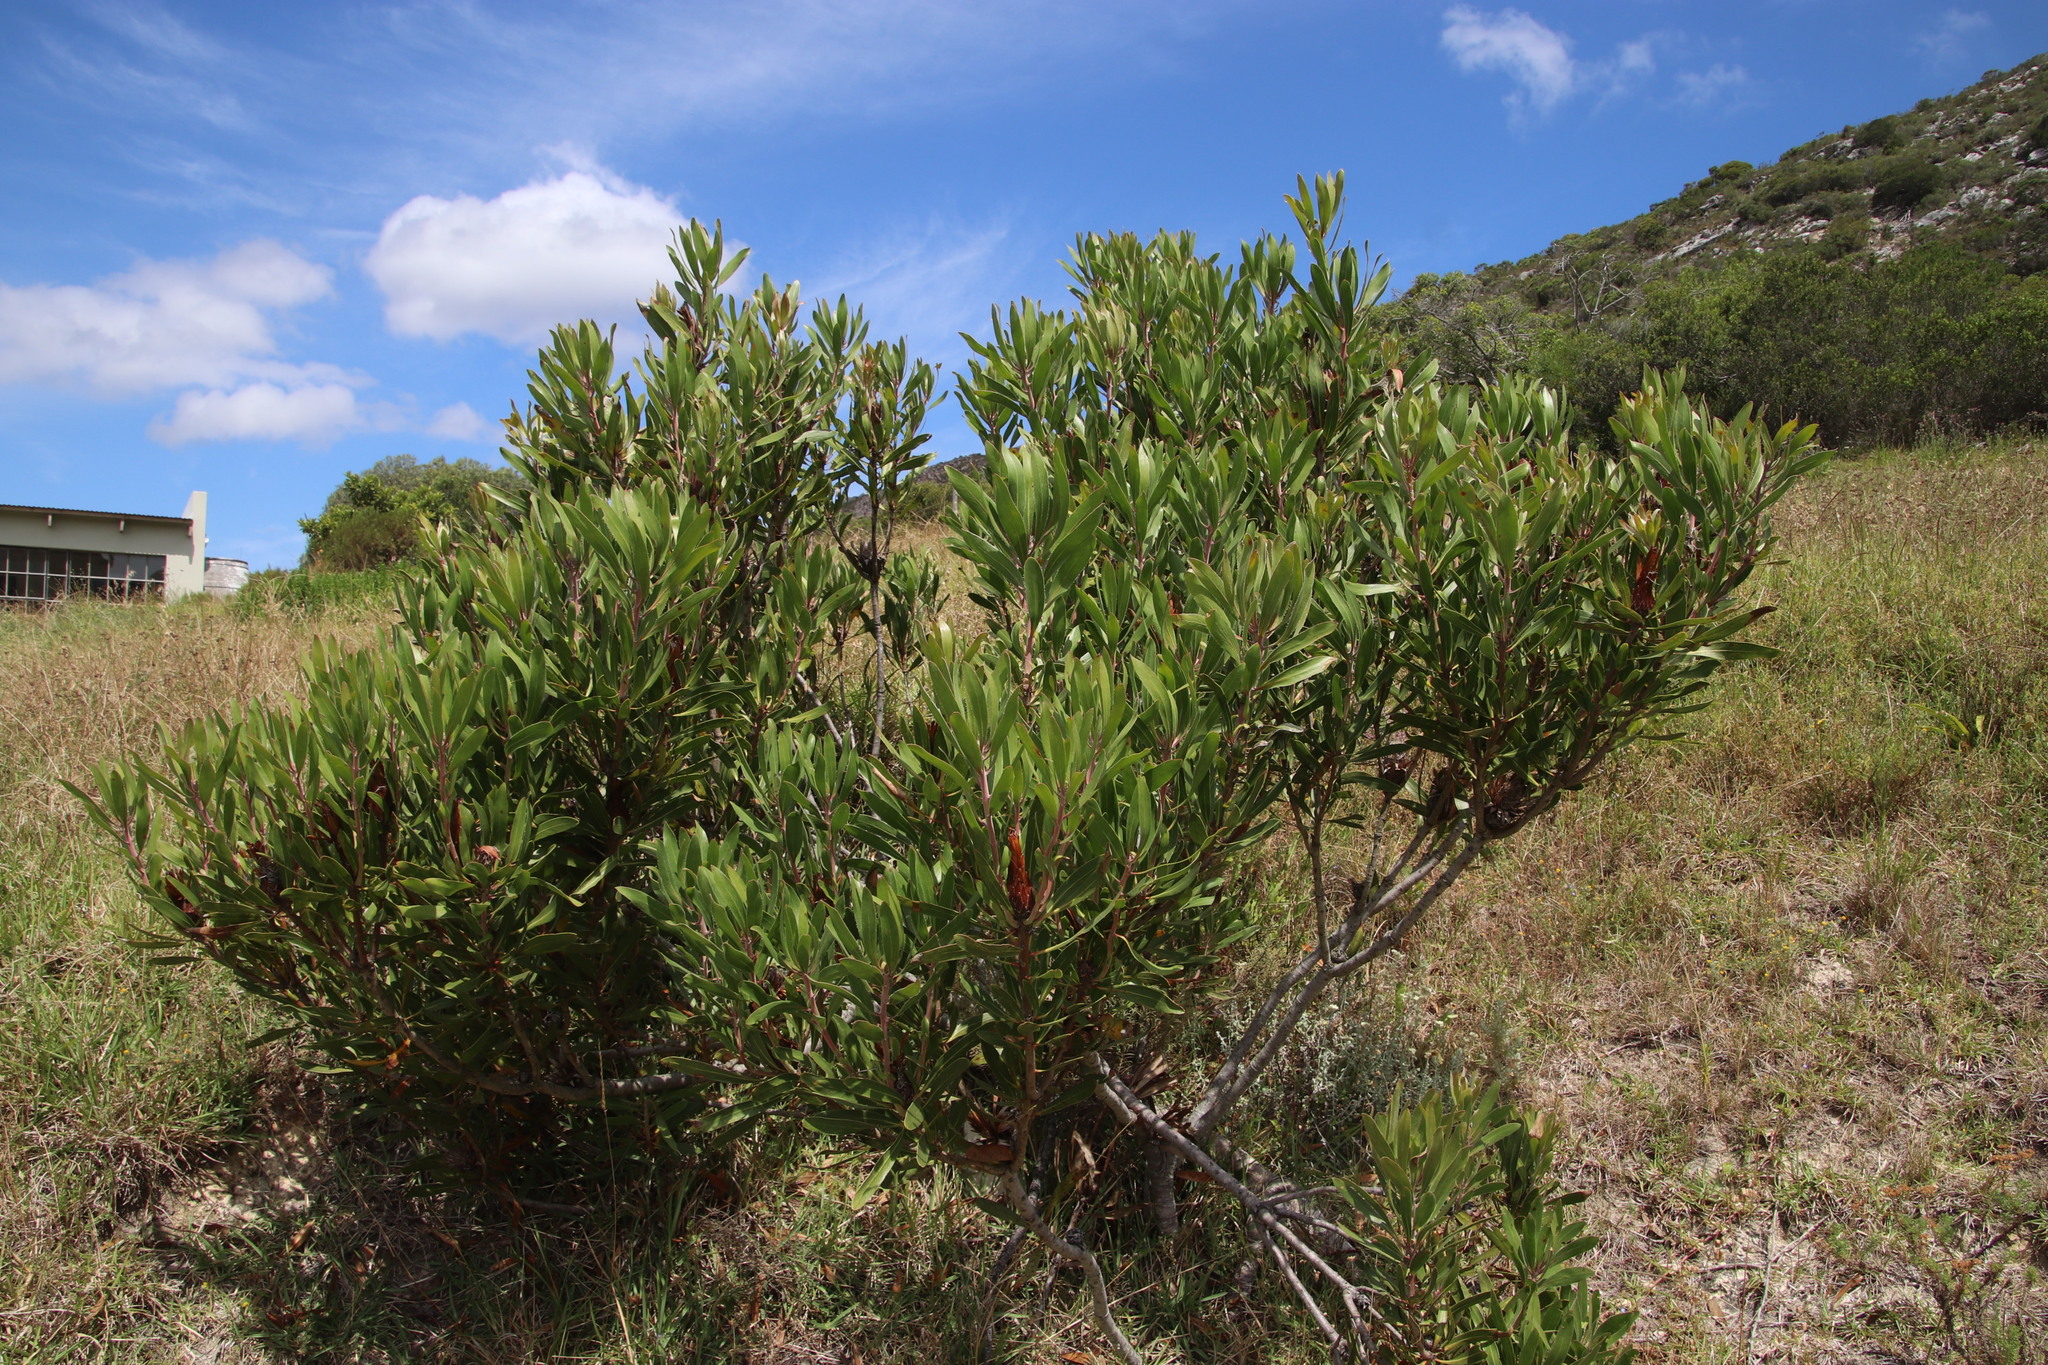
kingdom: Plantae
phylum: Tracheophyta
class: Magnoliopsida
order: Proteales
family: Proteaceae
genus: Protea
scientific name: Protea obtusifolia
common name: Bredasdorp sugarbush
